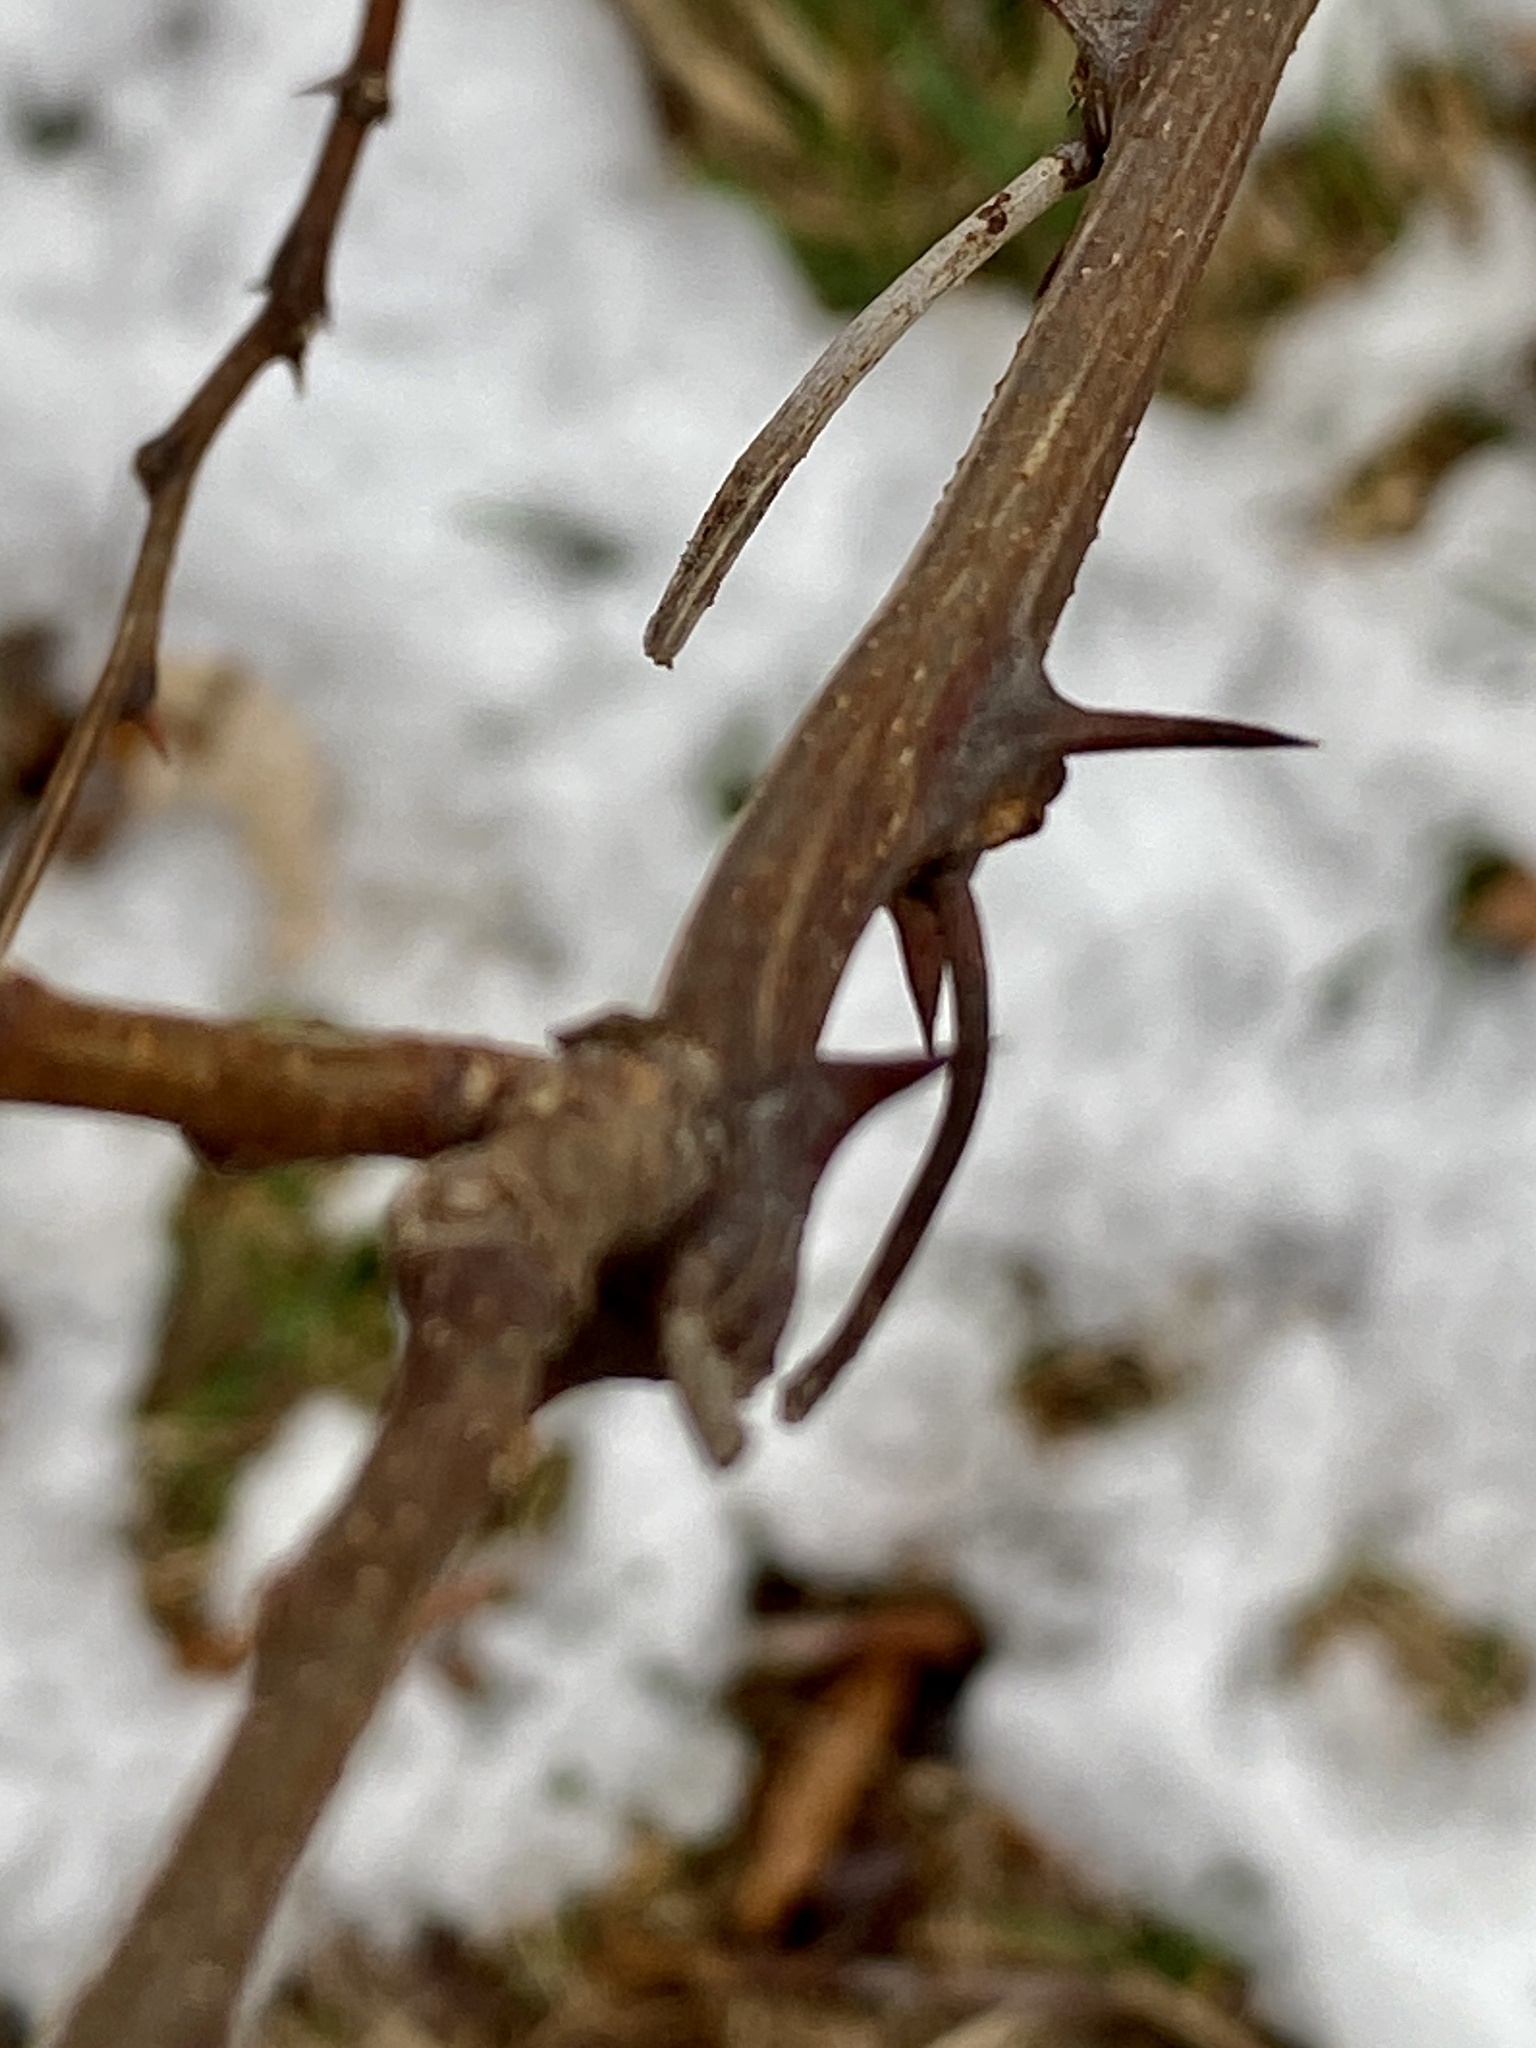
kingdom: Plantae
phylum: Tracheophyta
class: Magnoliopsida
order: Fabales
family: Fabaceae
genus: Robinia
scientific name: Robinia pseudoacacia
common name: Black locust
